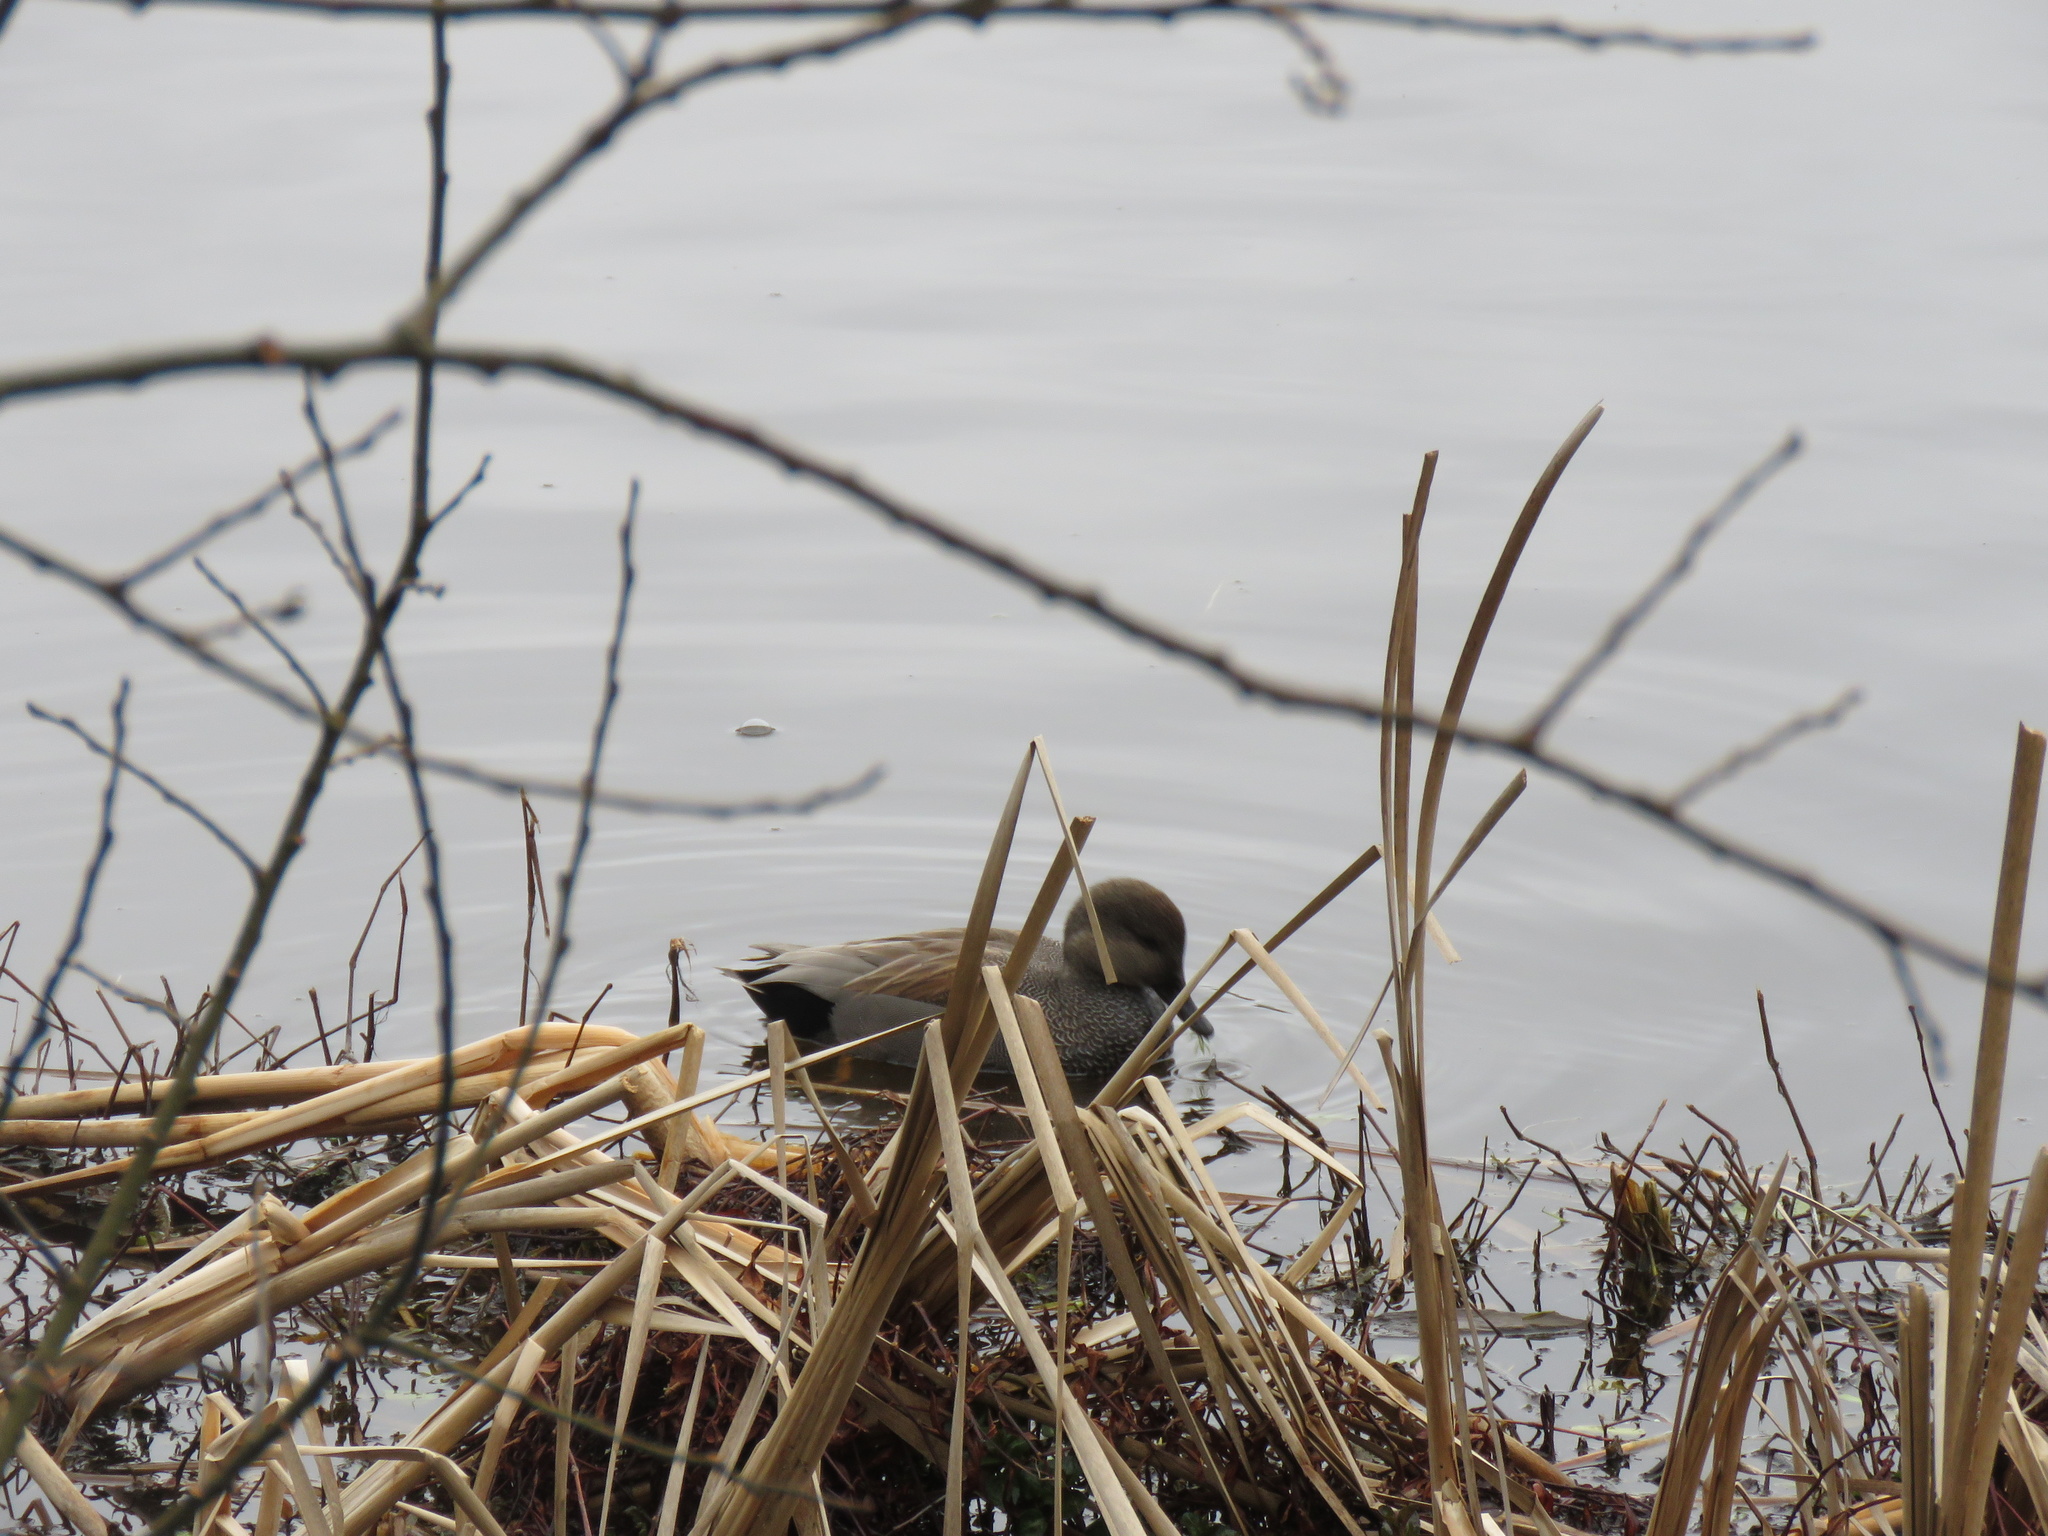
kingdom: Animalia
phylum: Chordata
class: Aves
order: Anseriformes
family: Anatidae
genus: Mareca
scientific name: Mareca strepera
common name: Gadwall
